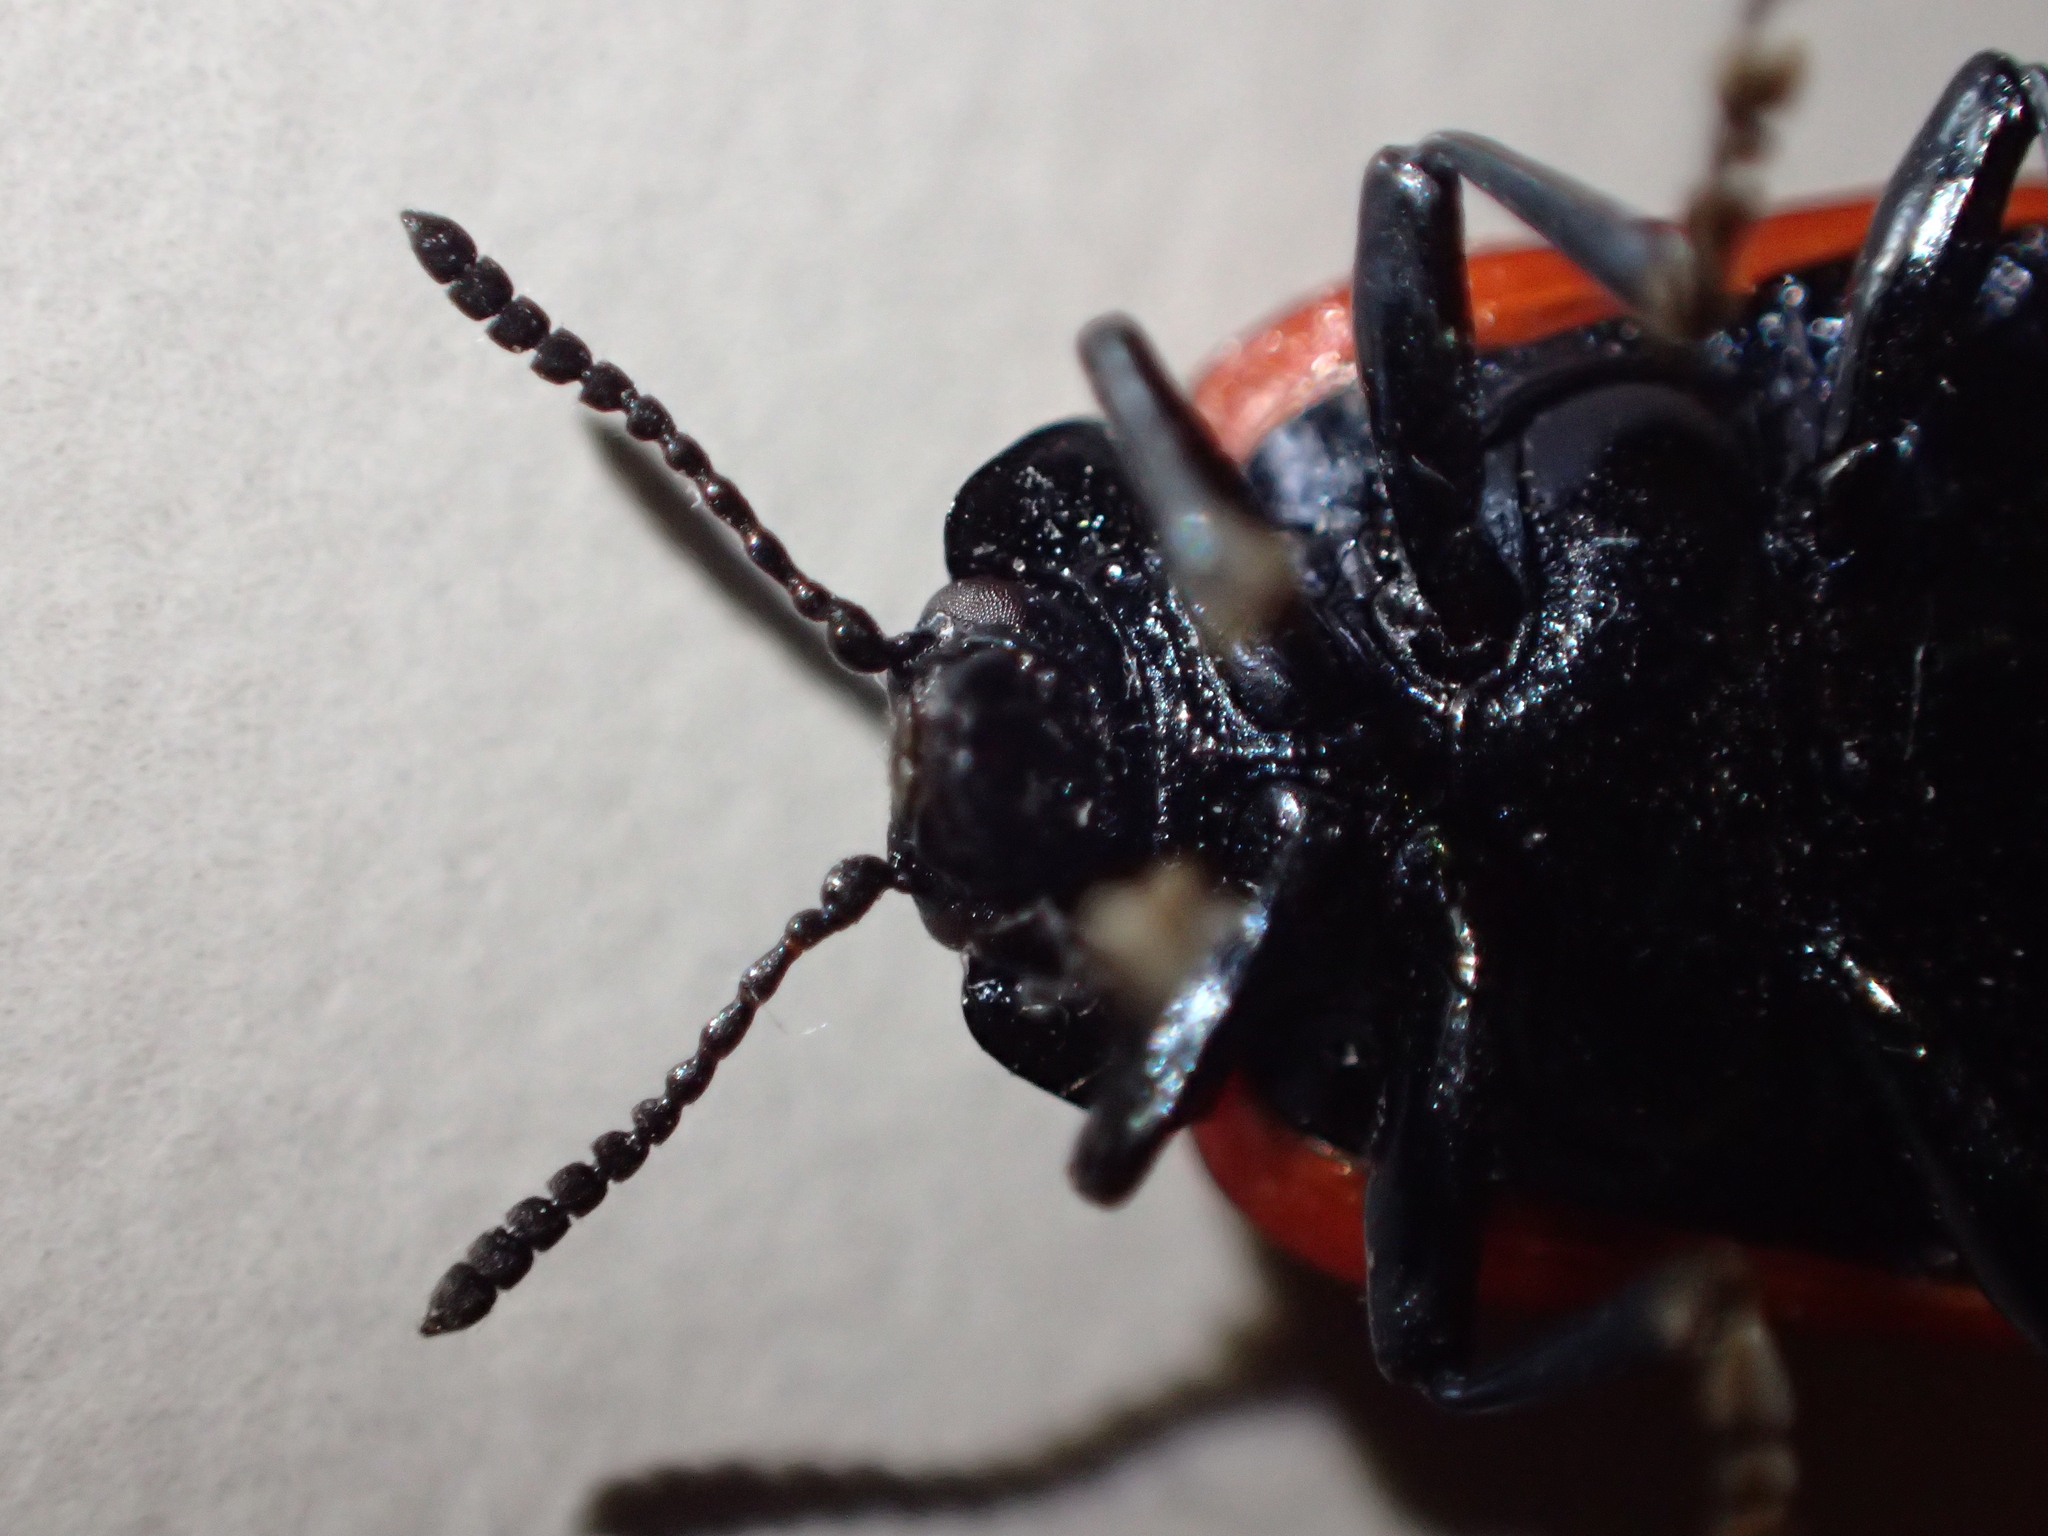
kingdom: Animalia
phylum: Arthropoda
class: Insecta
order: Coleoptera
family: Chrysomelidae
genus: Chrysomela
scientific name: Chrysomela populi
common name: Red poplar leaf beetle
